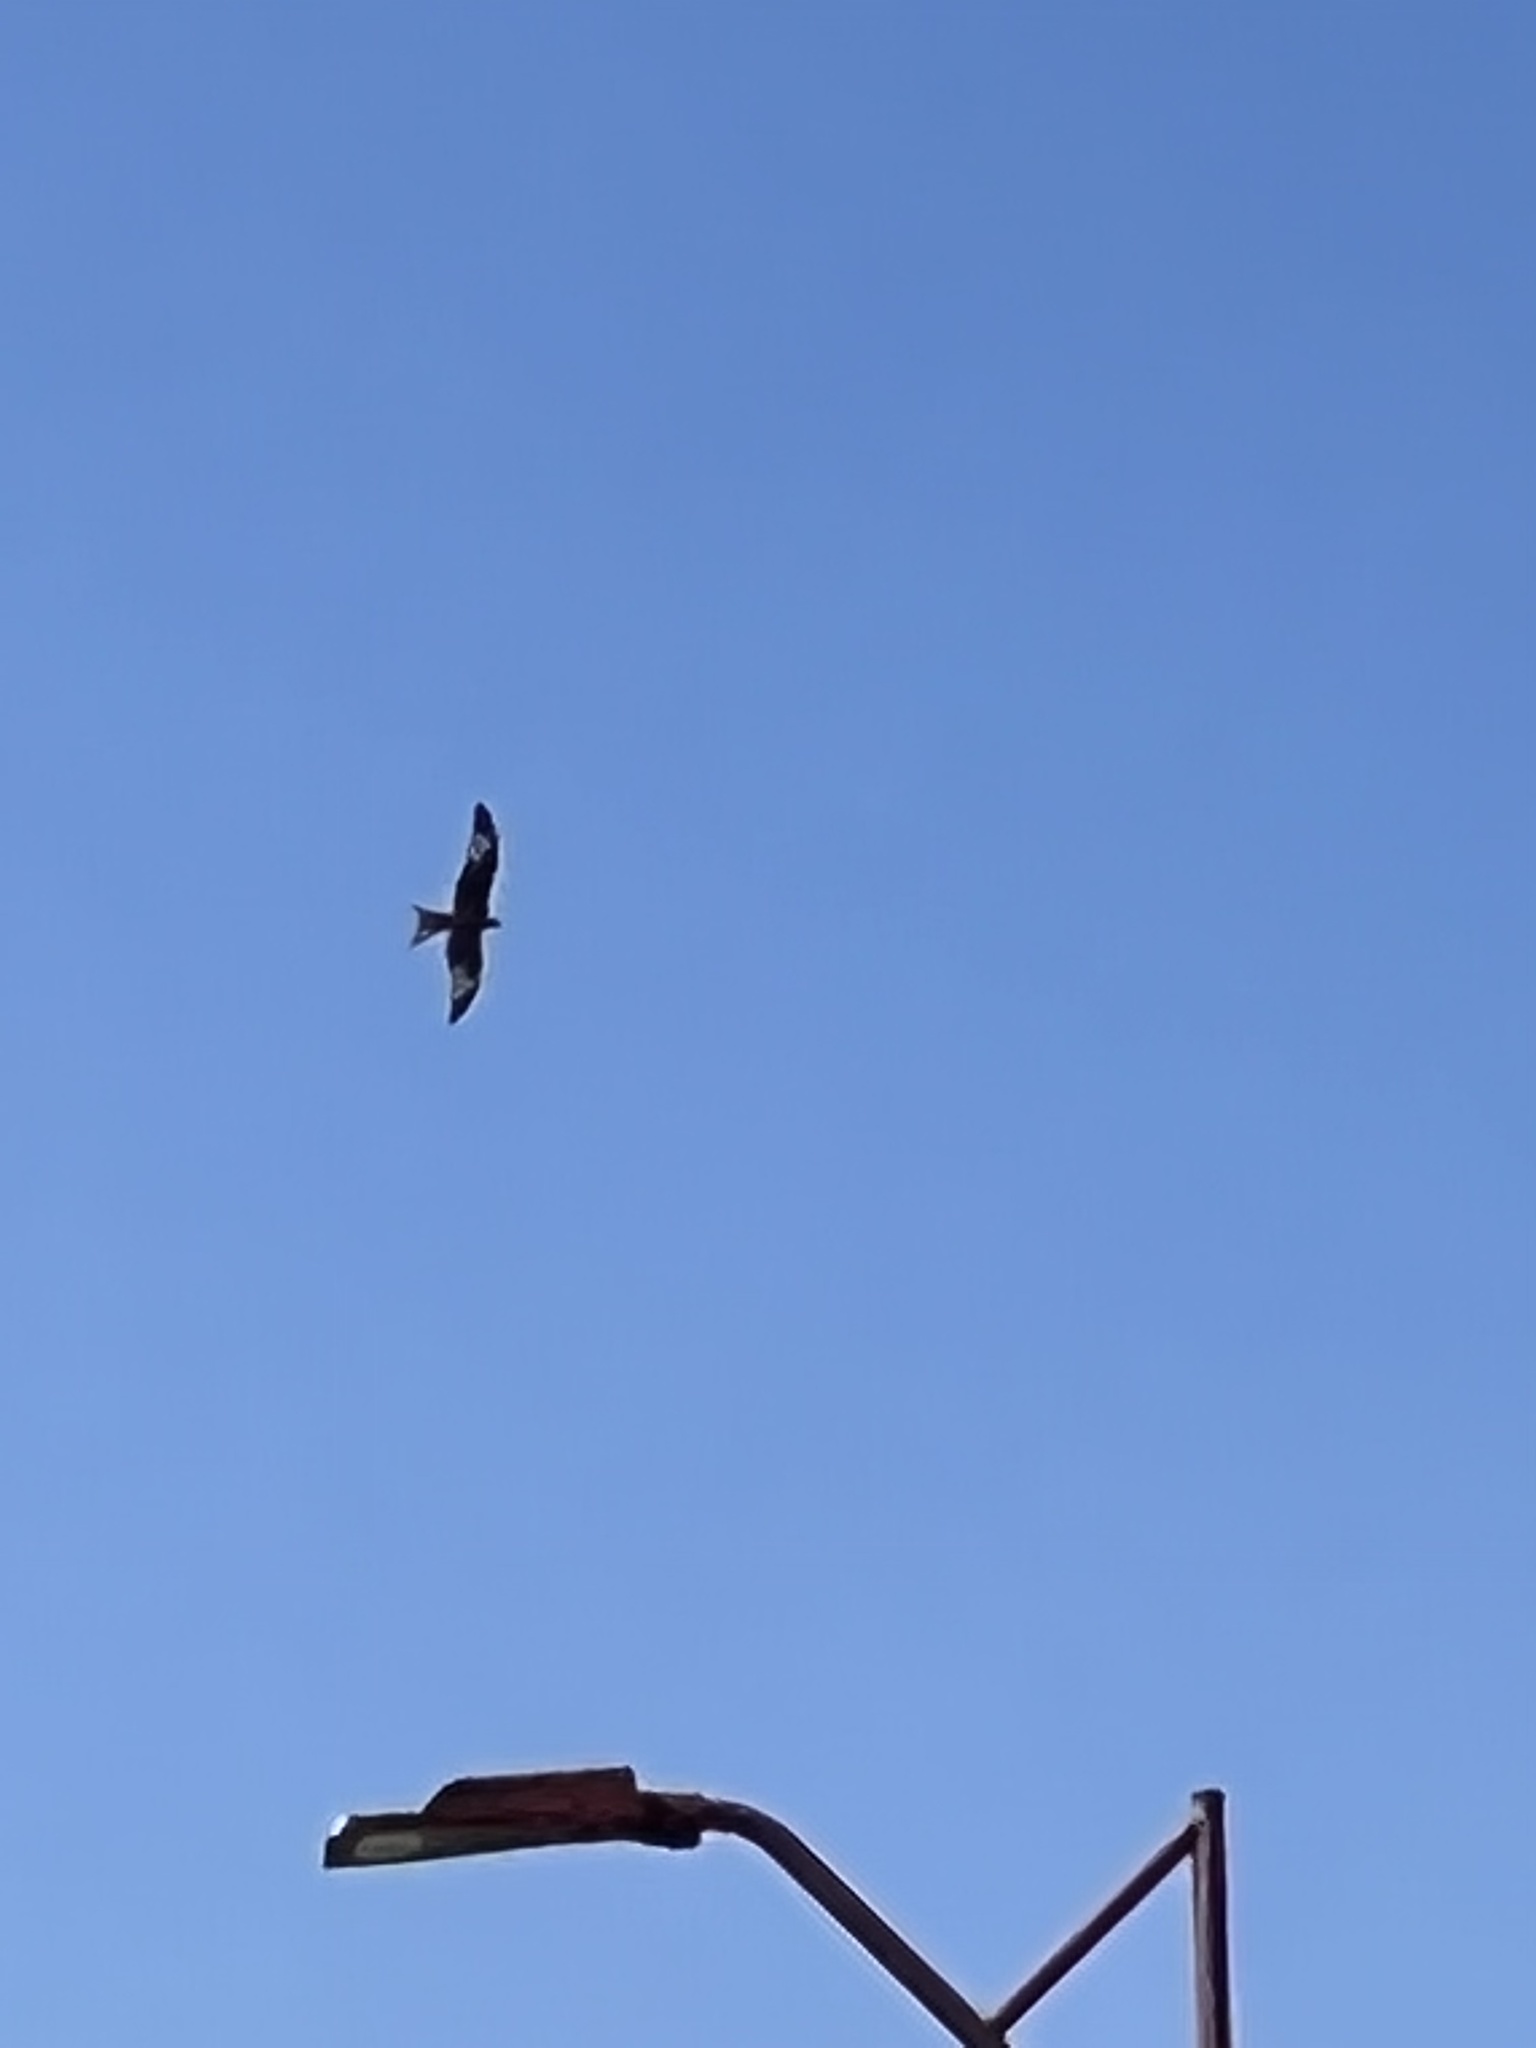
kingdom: Animalia
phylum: Chordata
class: Aves
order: Accipitriformes
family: Accipitridae
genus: Milvus
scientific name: Milvus milvus
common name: Red kite
